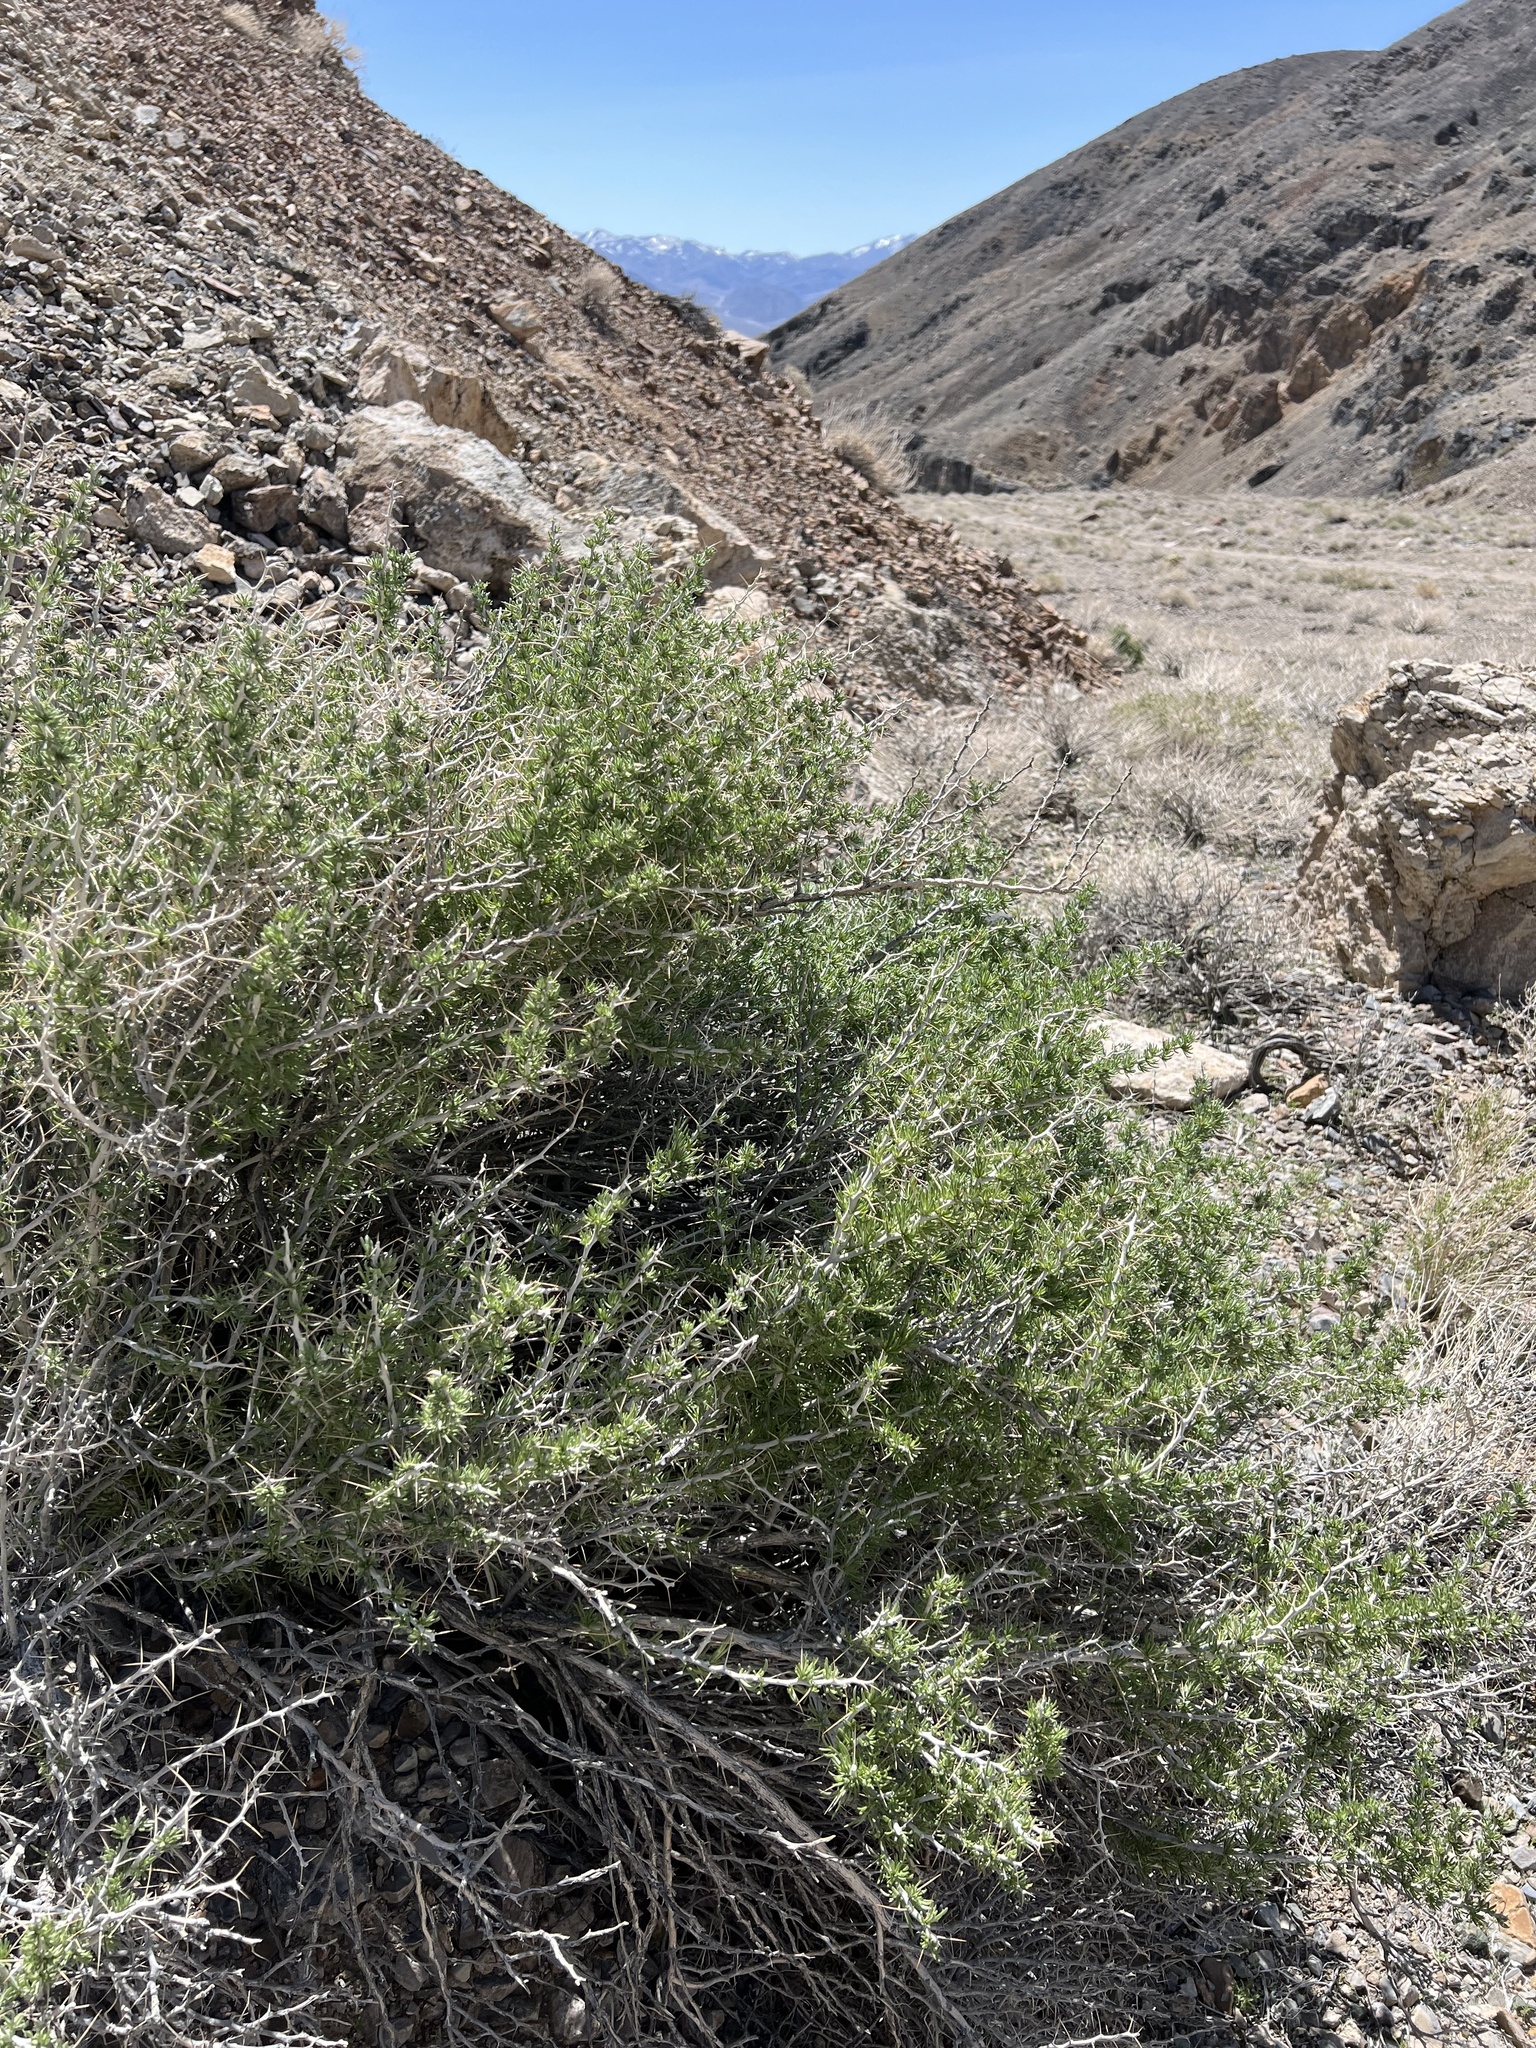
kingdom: Plantae
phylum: Tracheophyta
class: Magnoliopsida
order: Asterales
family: Asteraceae
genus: Tetradymia
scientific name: Tetradymia axillaris
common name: Long-spine horsebrush
